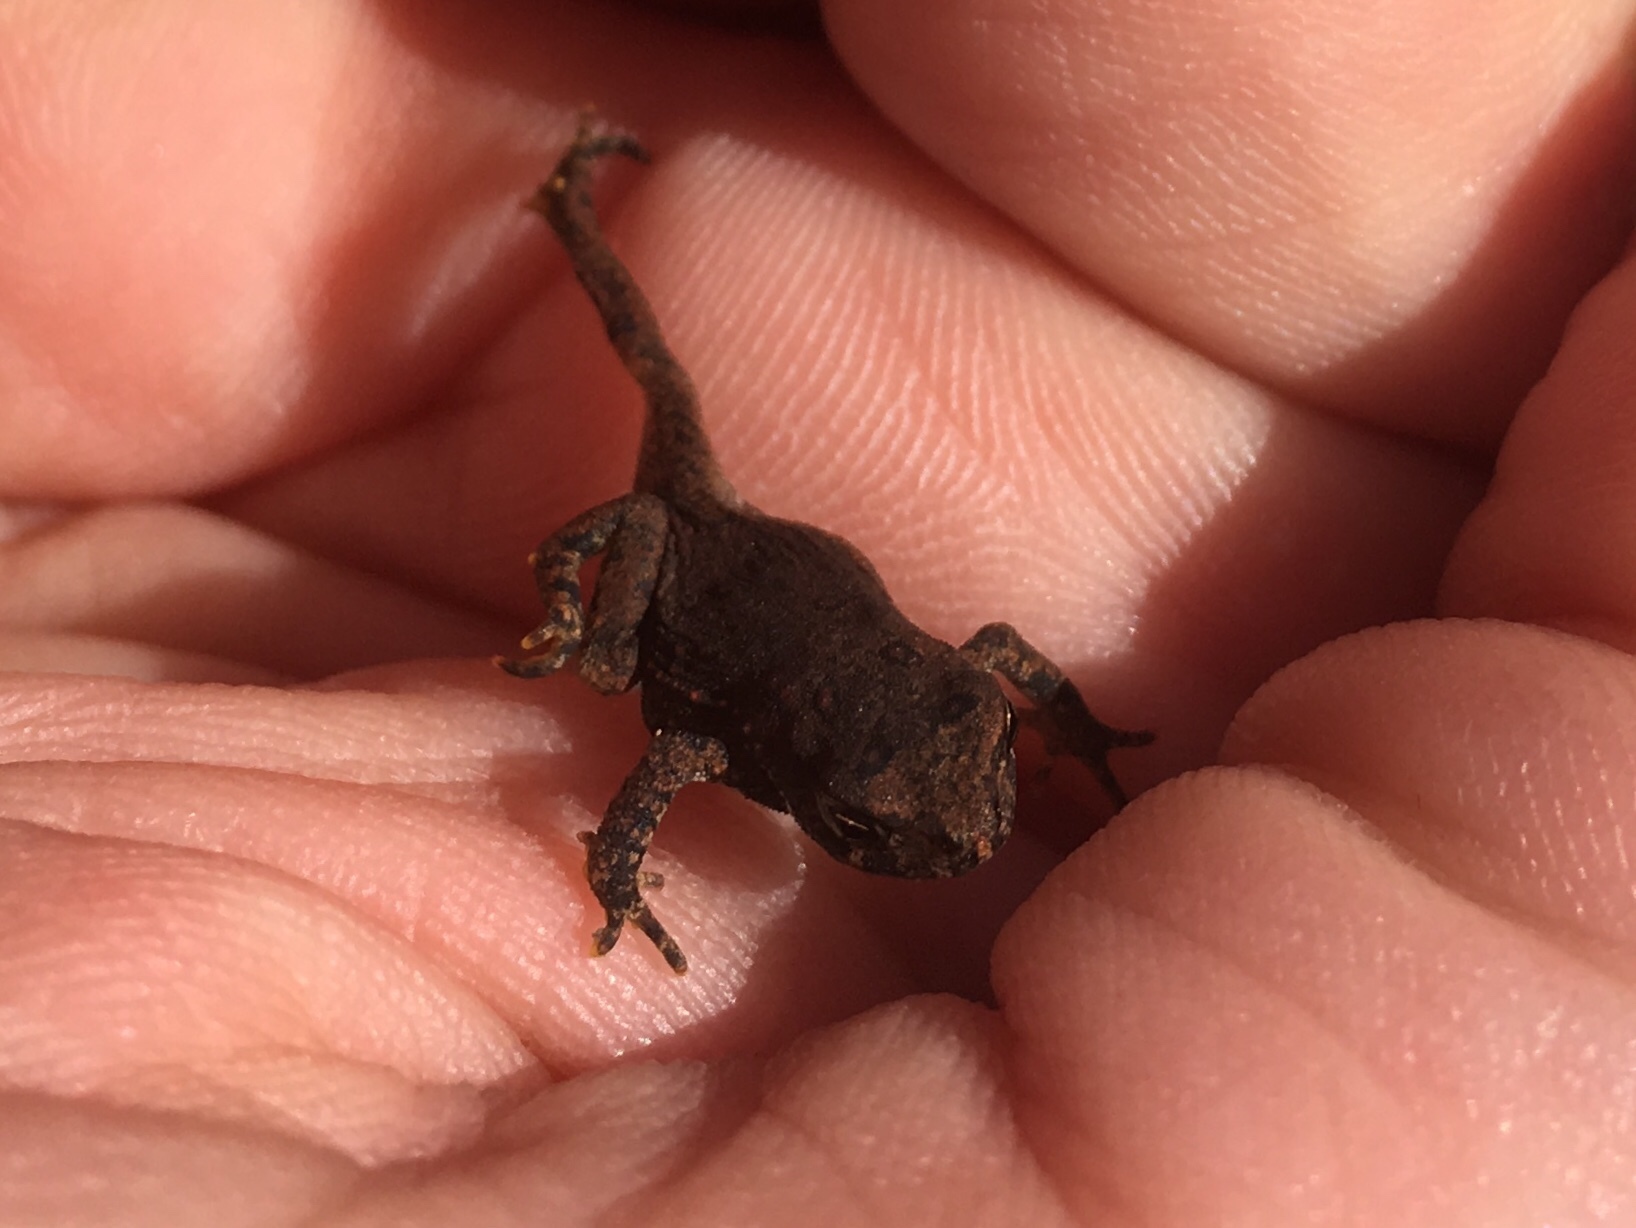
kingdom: Animalia
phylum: Chordata
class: Amphibia
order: Anura
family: Bufonidae
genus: Anaxyrus
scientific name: Anaxyrus americanus
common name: American toad
